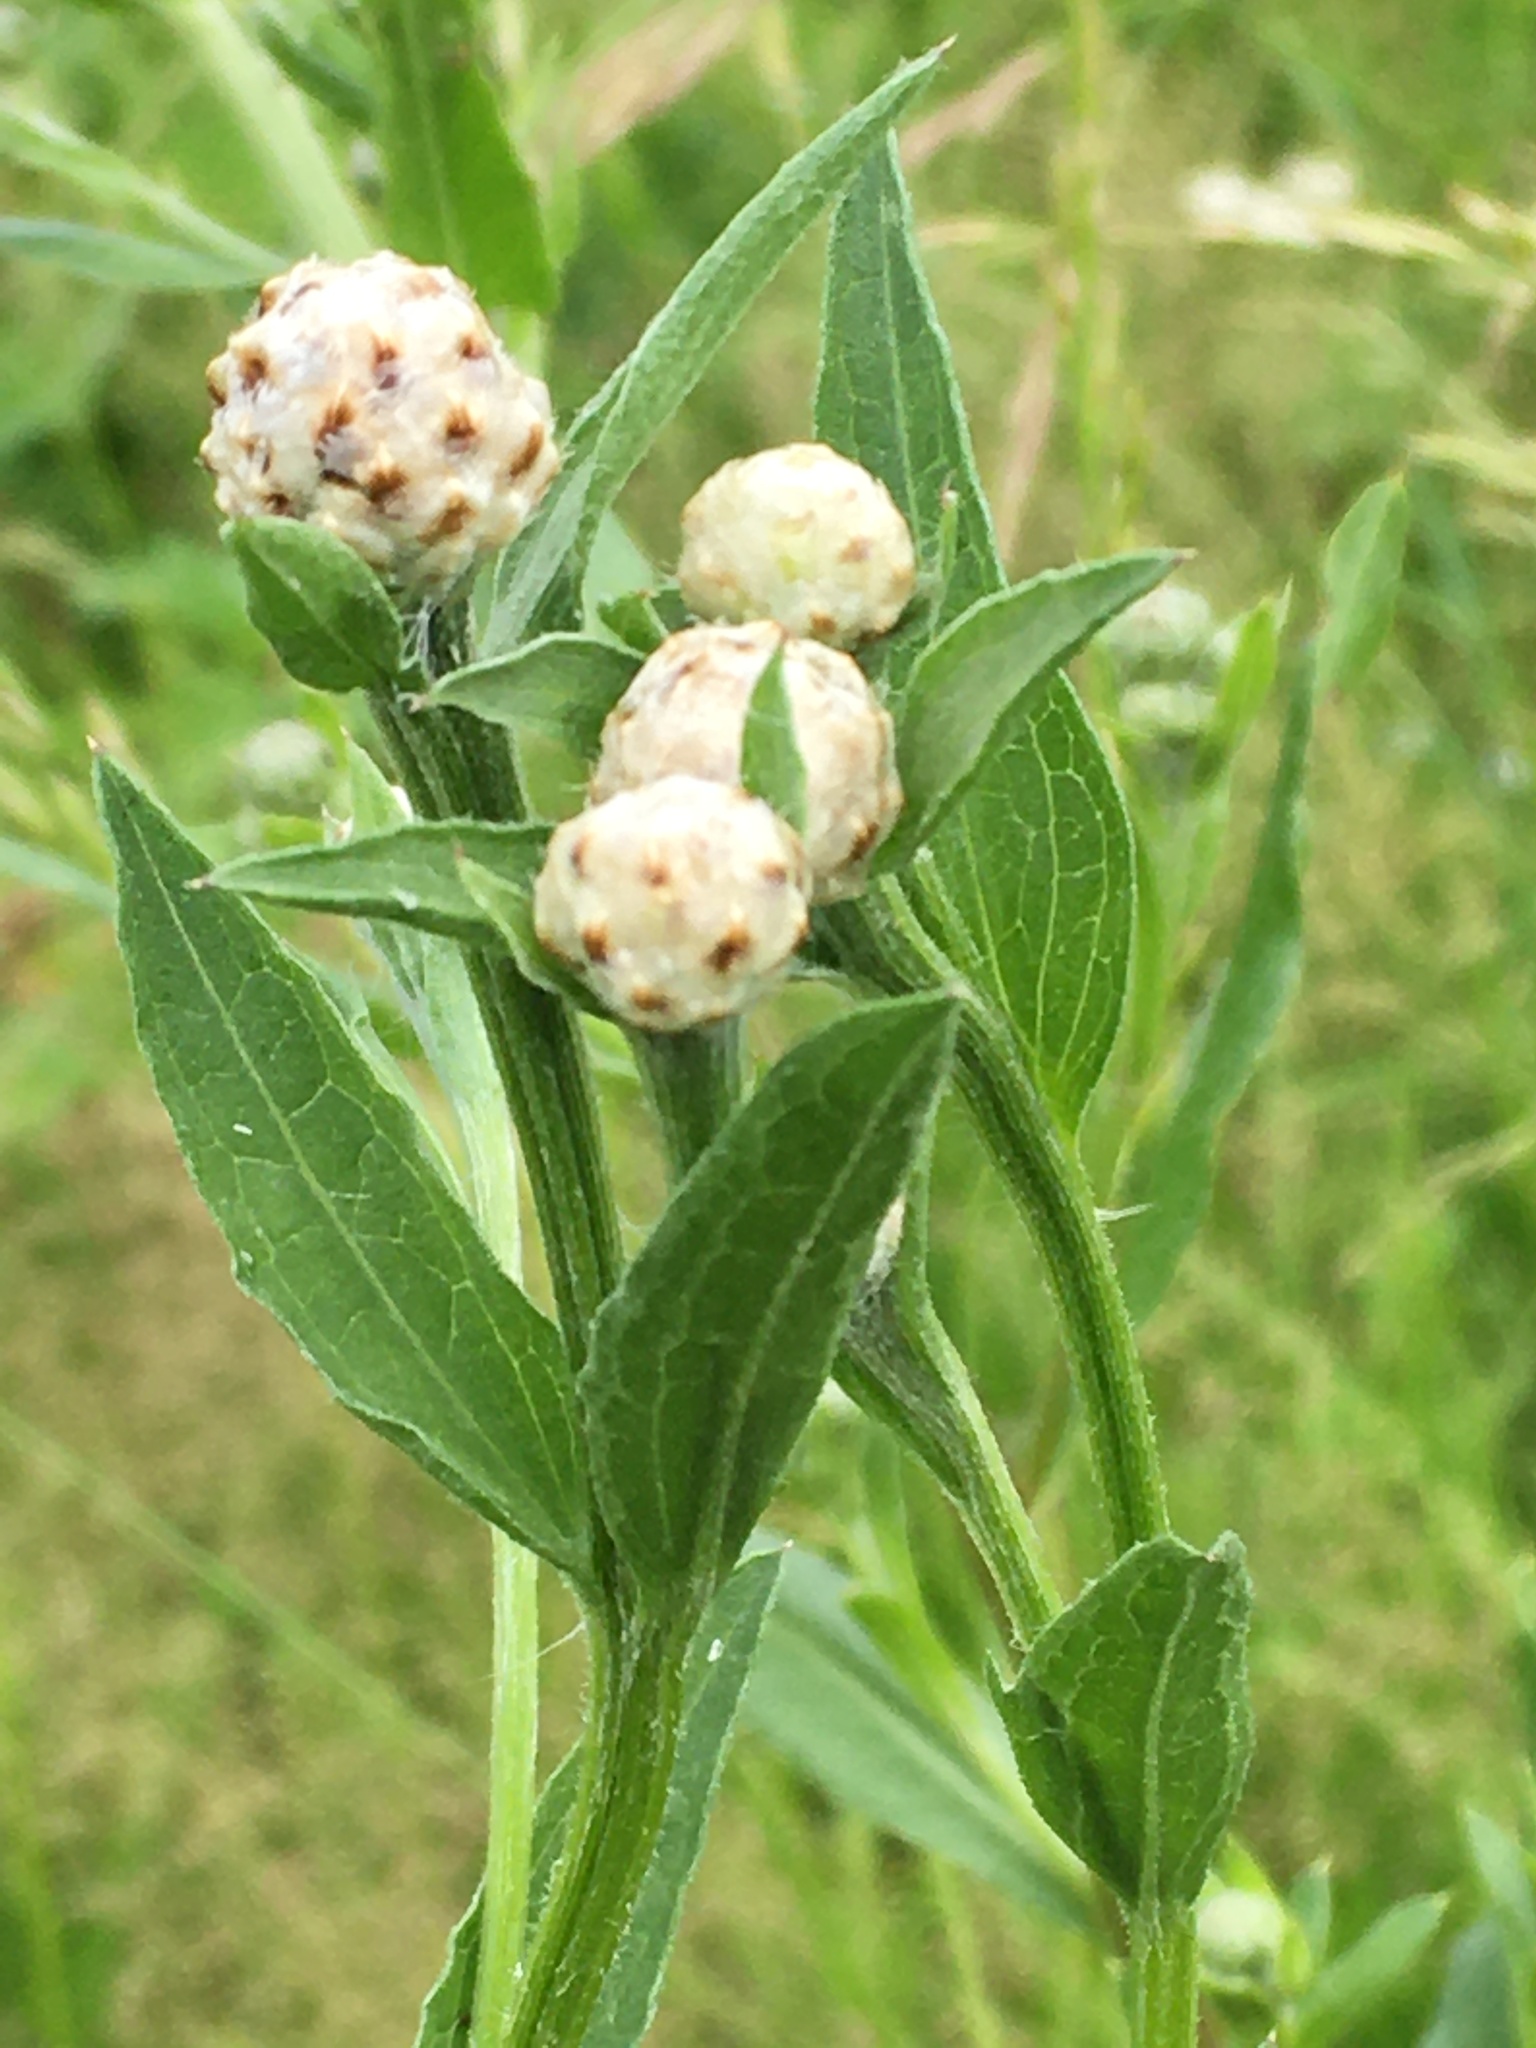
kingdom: Plantae
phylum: Tracheophyta
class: Magnoliopsida
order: Asterales
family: Asteraceae
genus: Centaurea
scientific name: Centaurea jacea
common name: Brown knapweed
